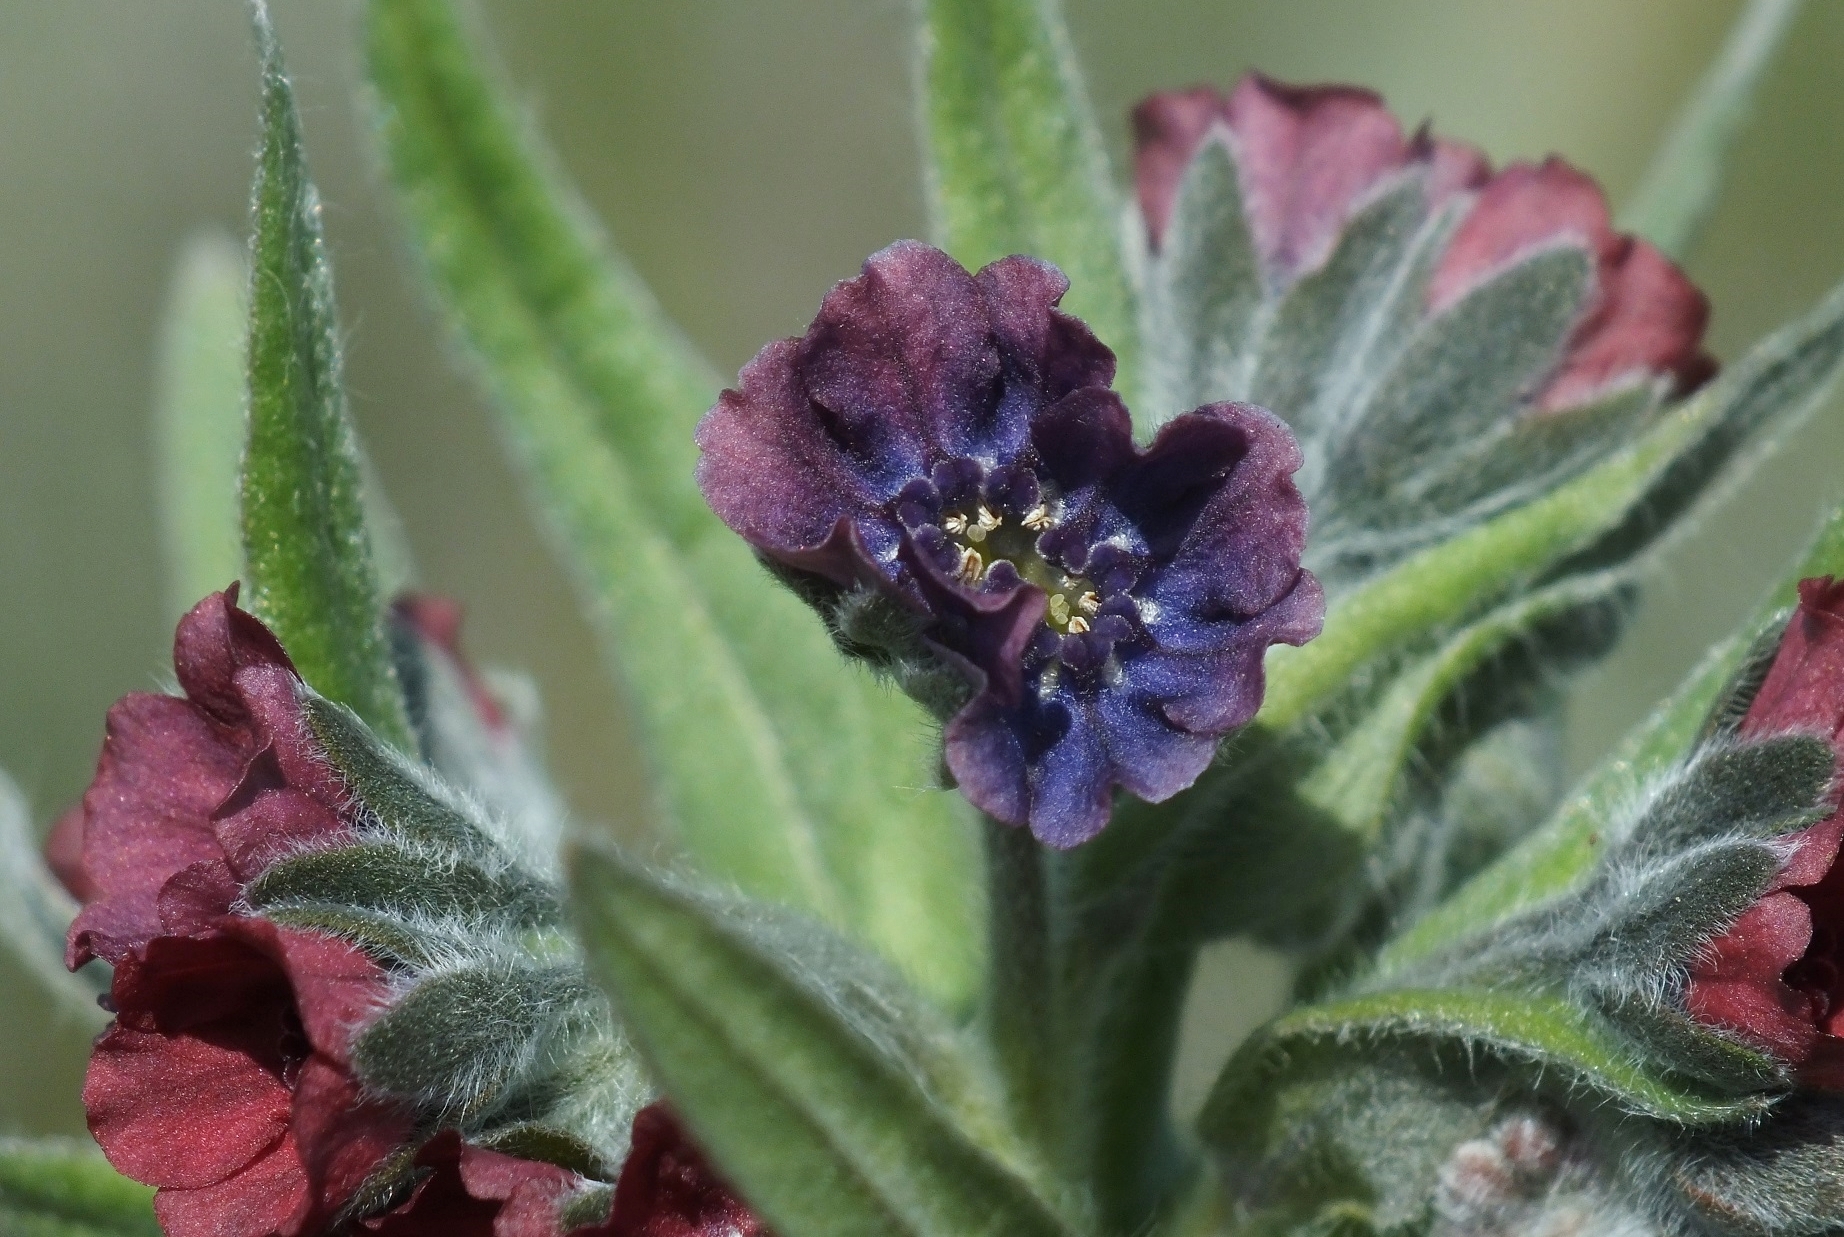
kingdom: Plantae
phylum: Tracheophyta
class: Magnoliopsida
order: Boraginales
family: Boraginaceae
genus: Cynoglossum
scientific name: Cynoglossum officinale
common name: Hound's-tongue
